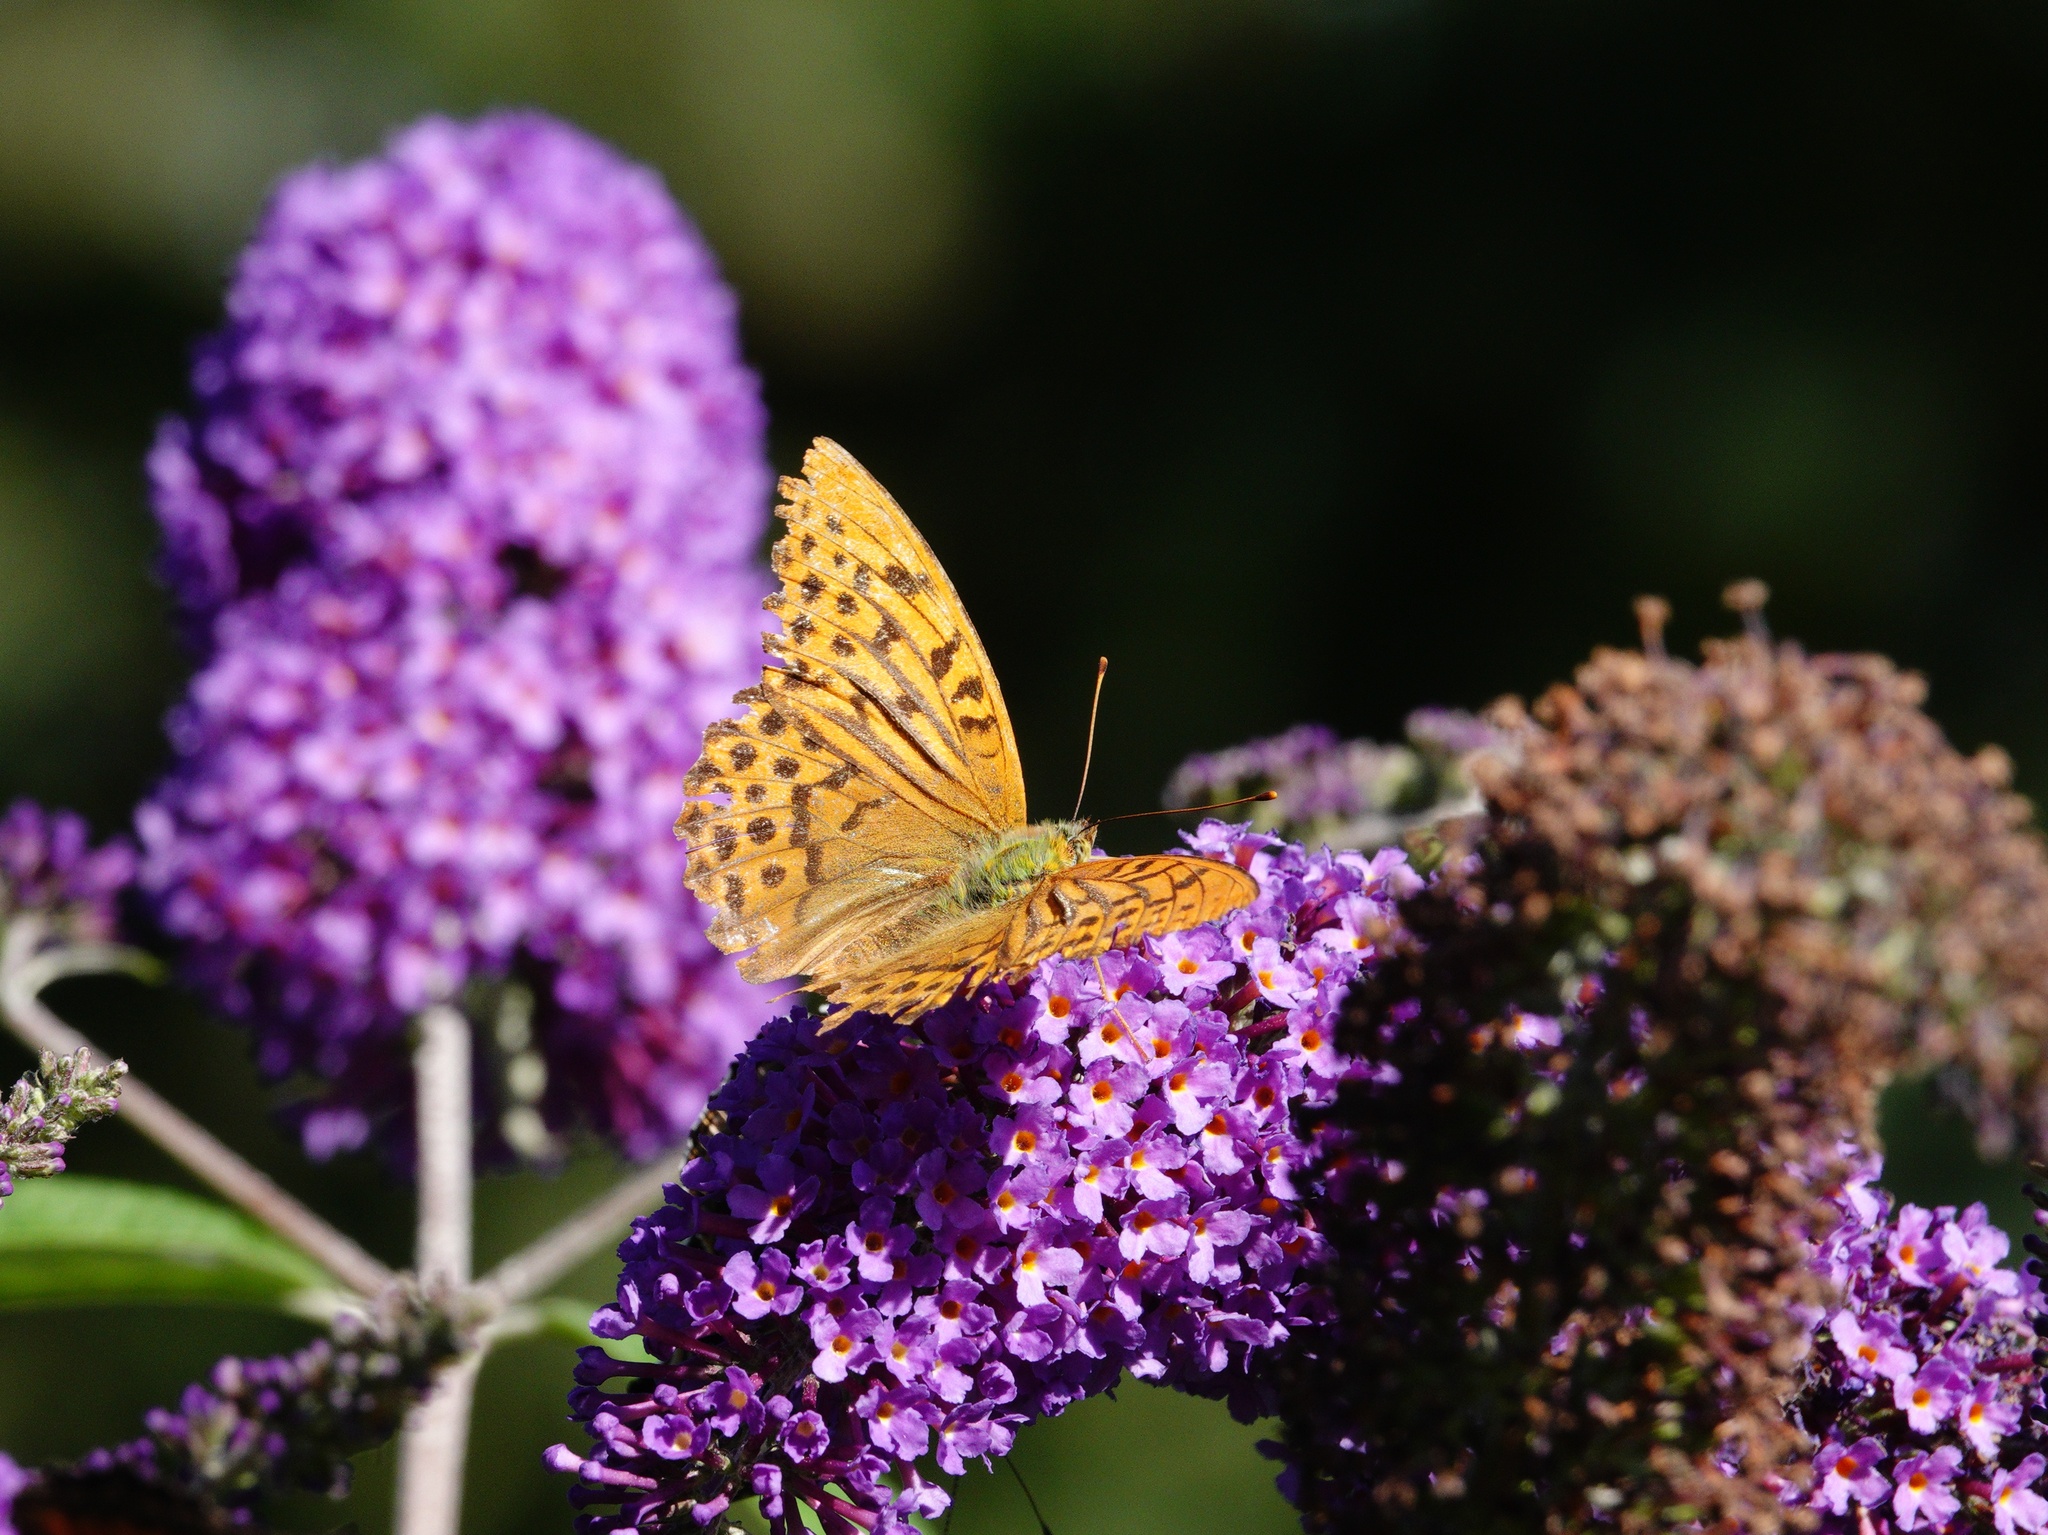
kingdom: Animalia
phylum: Arthropoda
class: Insecta
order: Lepidoptera
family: Nymphalidae
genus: Argynnis
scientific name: Argynnis paphia
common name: Silver-washed fritillary
